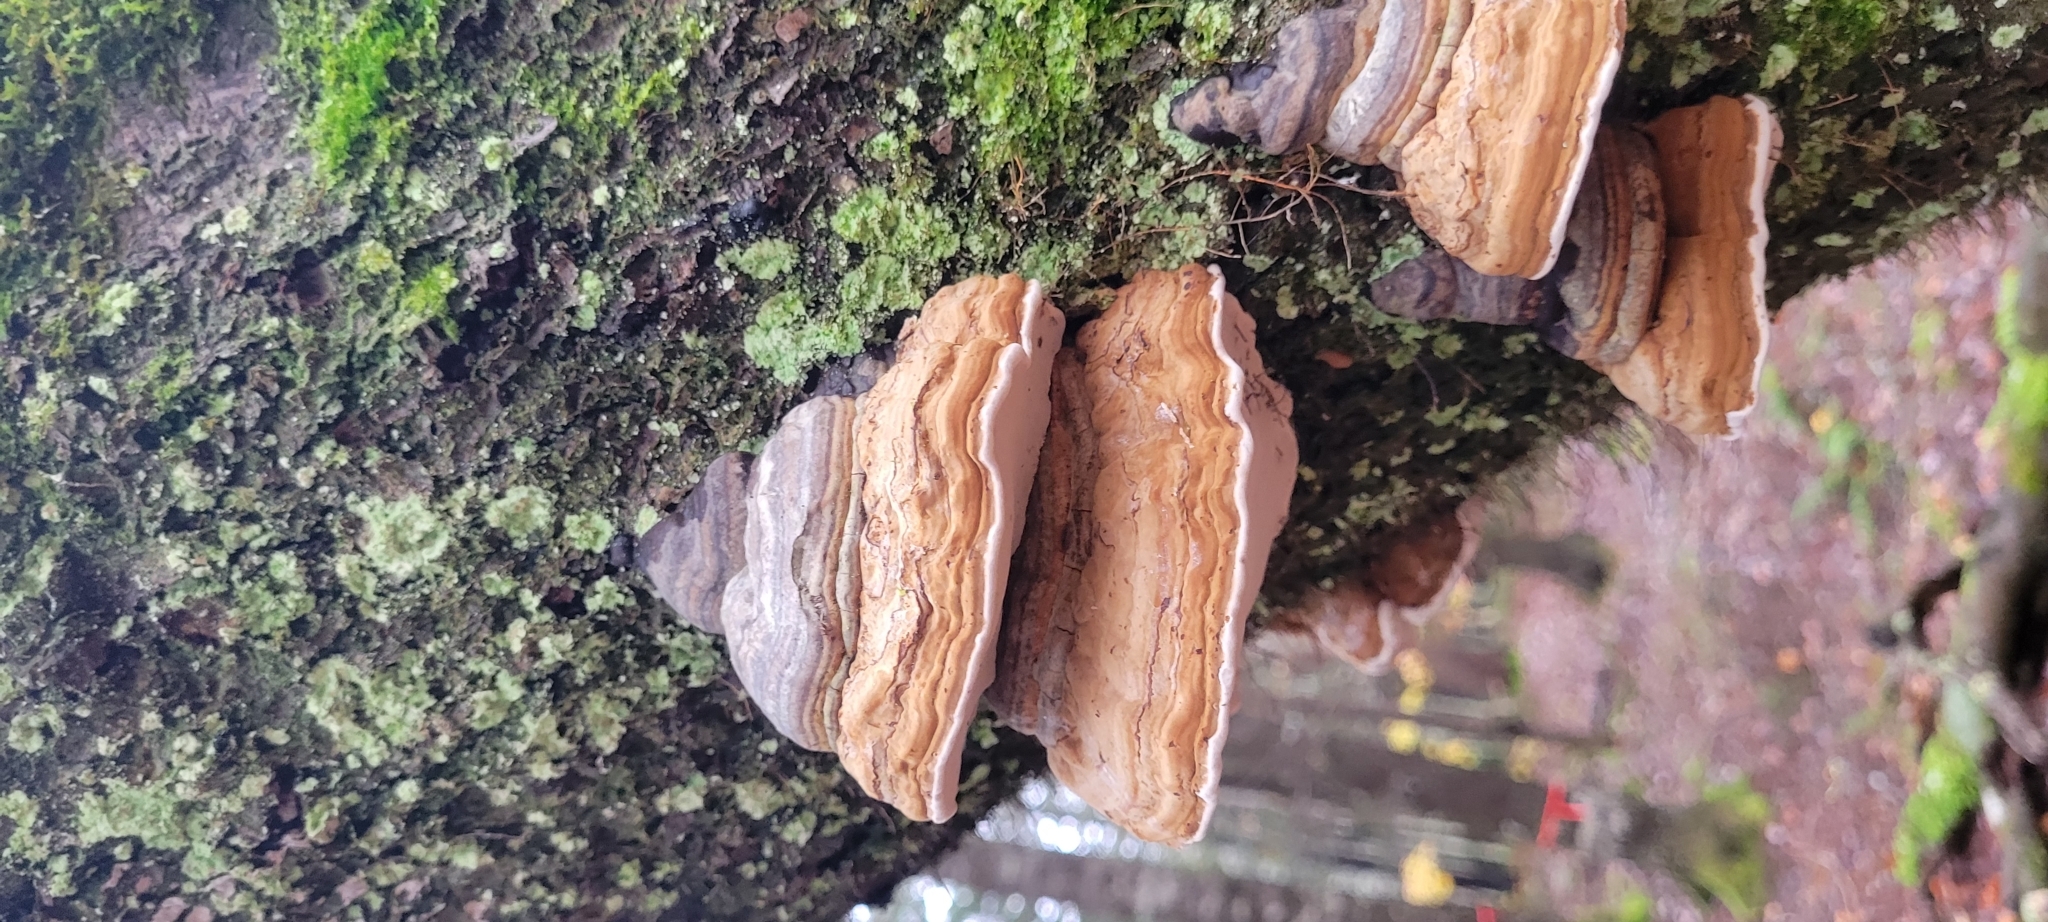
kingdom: Fungi
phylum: Basidiomycota
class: Agaricomycetes
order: Polyporales
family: Polyporaceae
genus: Fomes
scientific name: Fomes fomentarius
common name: Hoof fungus
